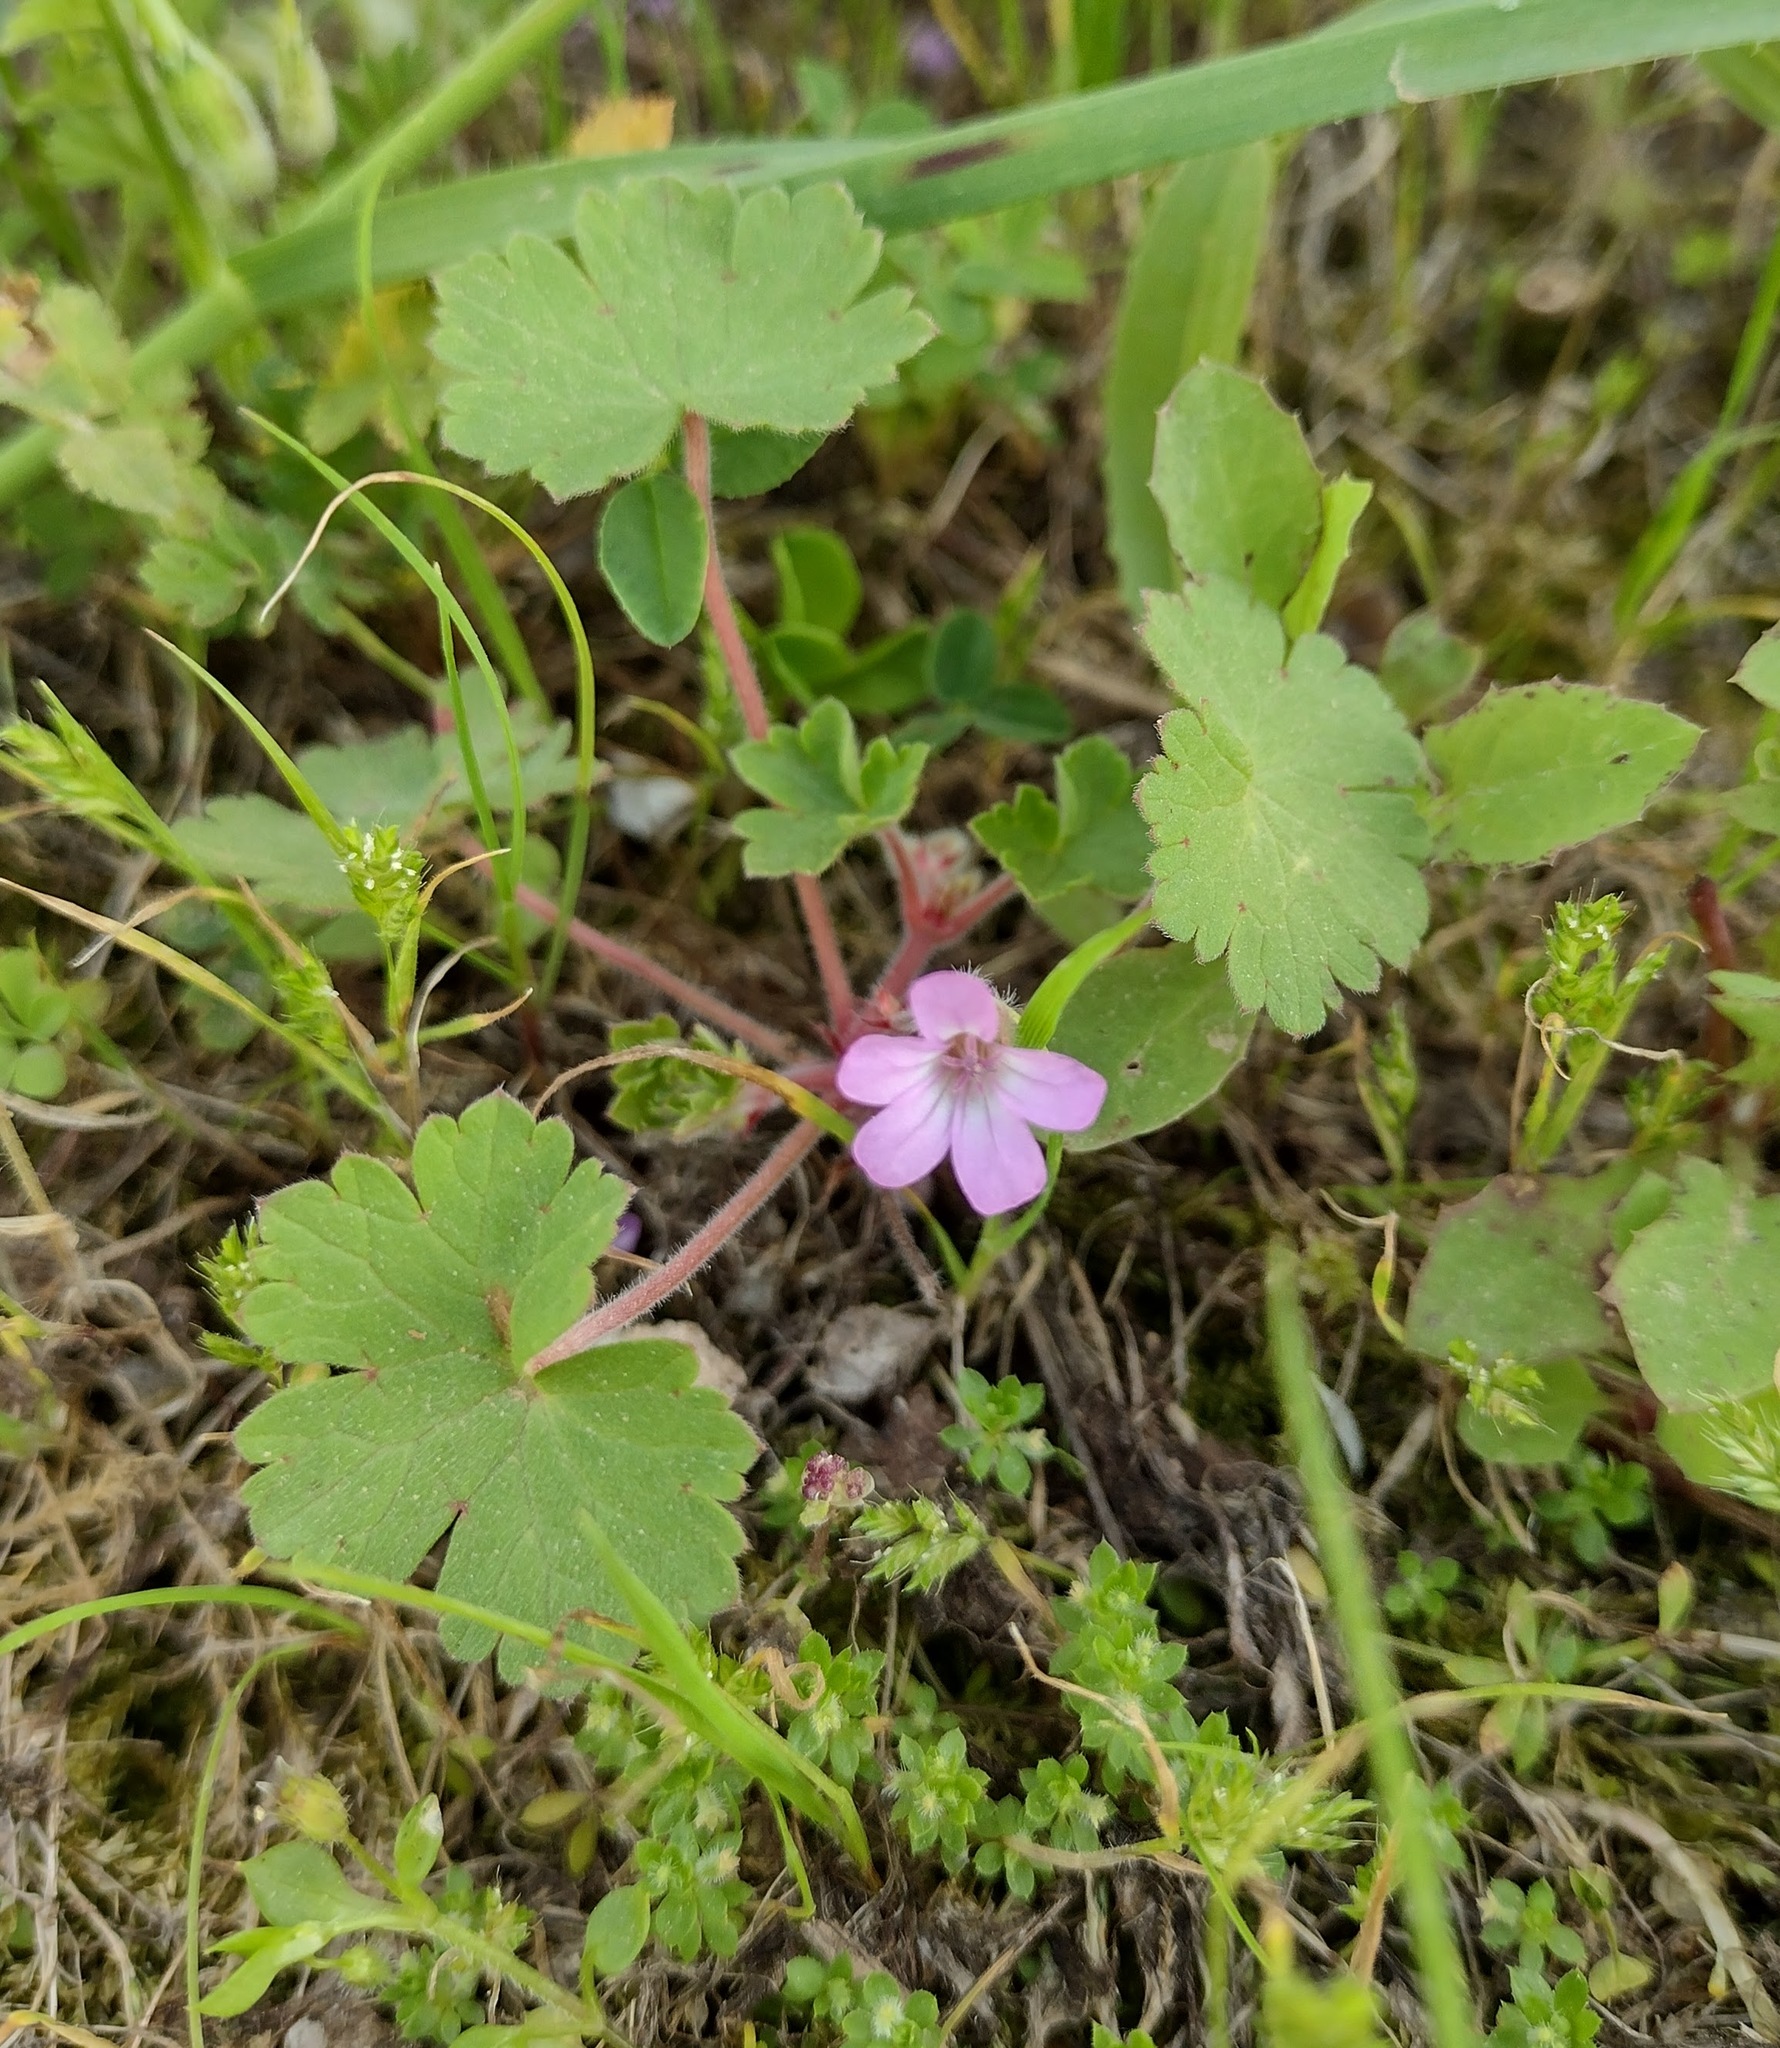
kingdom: Plantae
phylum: Tracheophyta
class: Magnoliopsida
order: Geraniales
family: Geraniaceae
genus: Geranium
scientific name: Geranium rotundifolium
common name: Round-leaved crane's-bill
